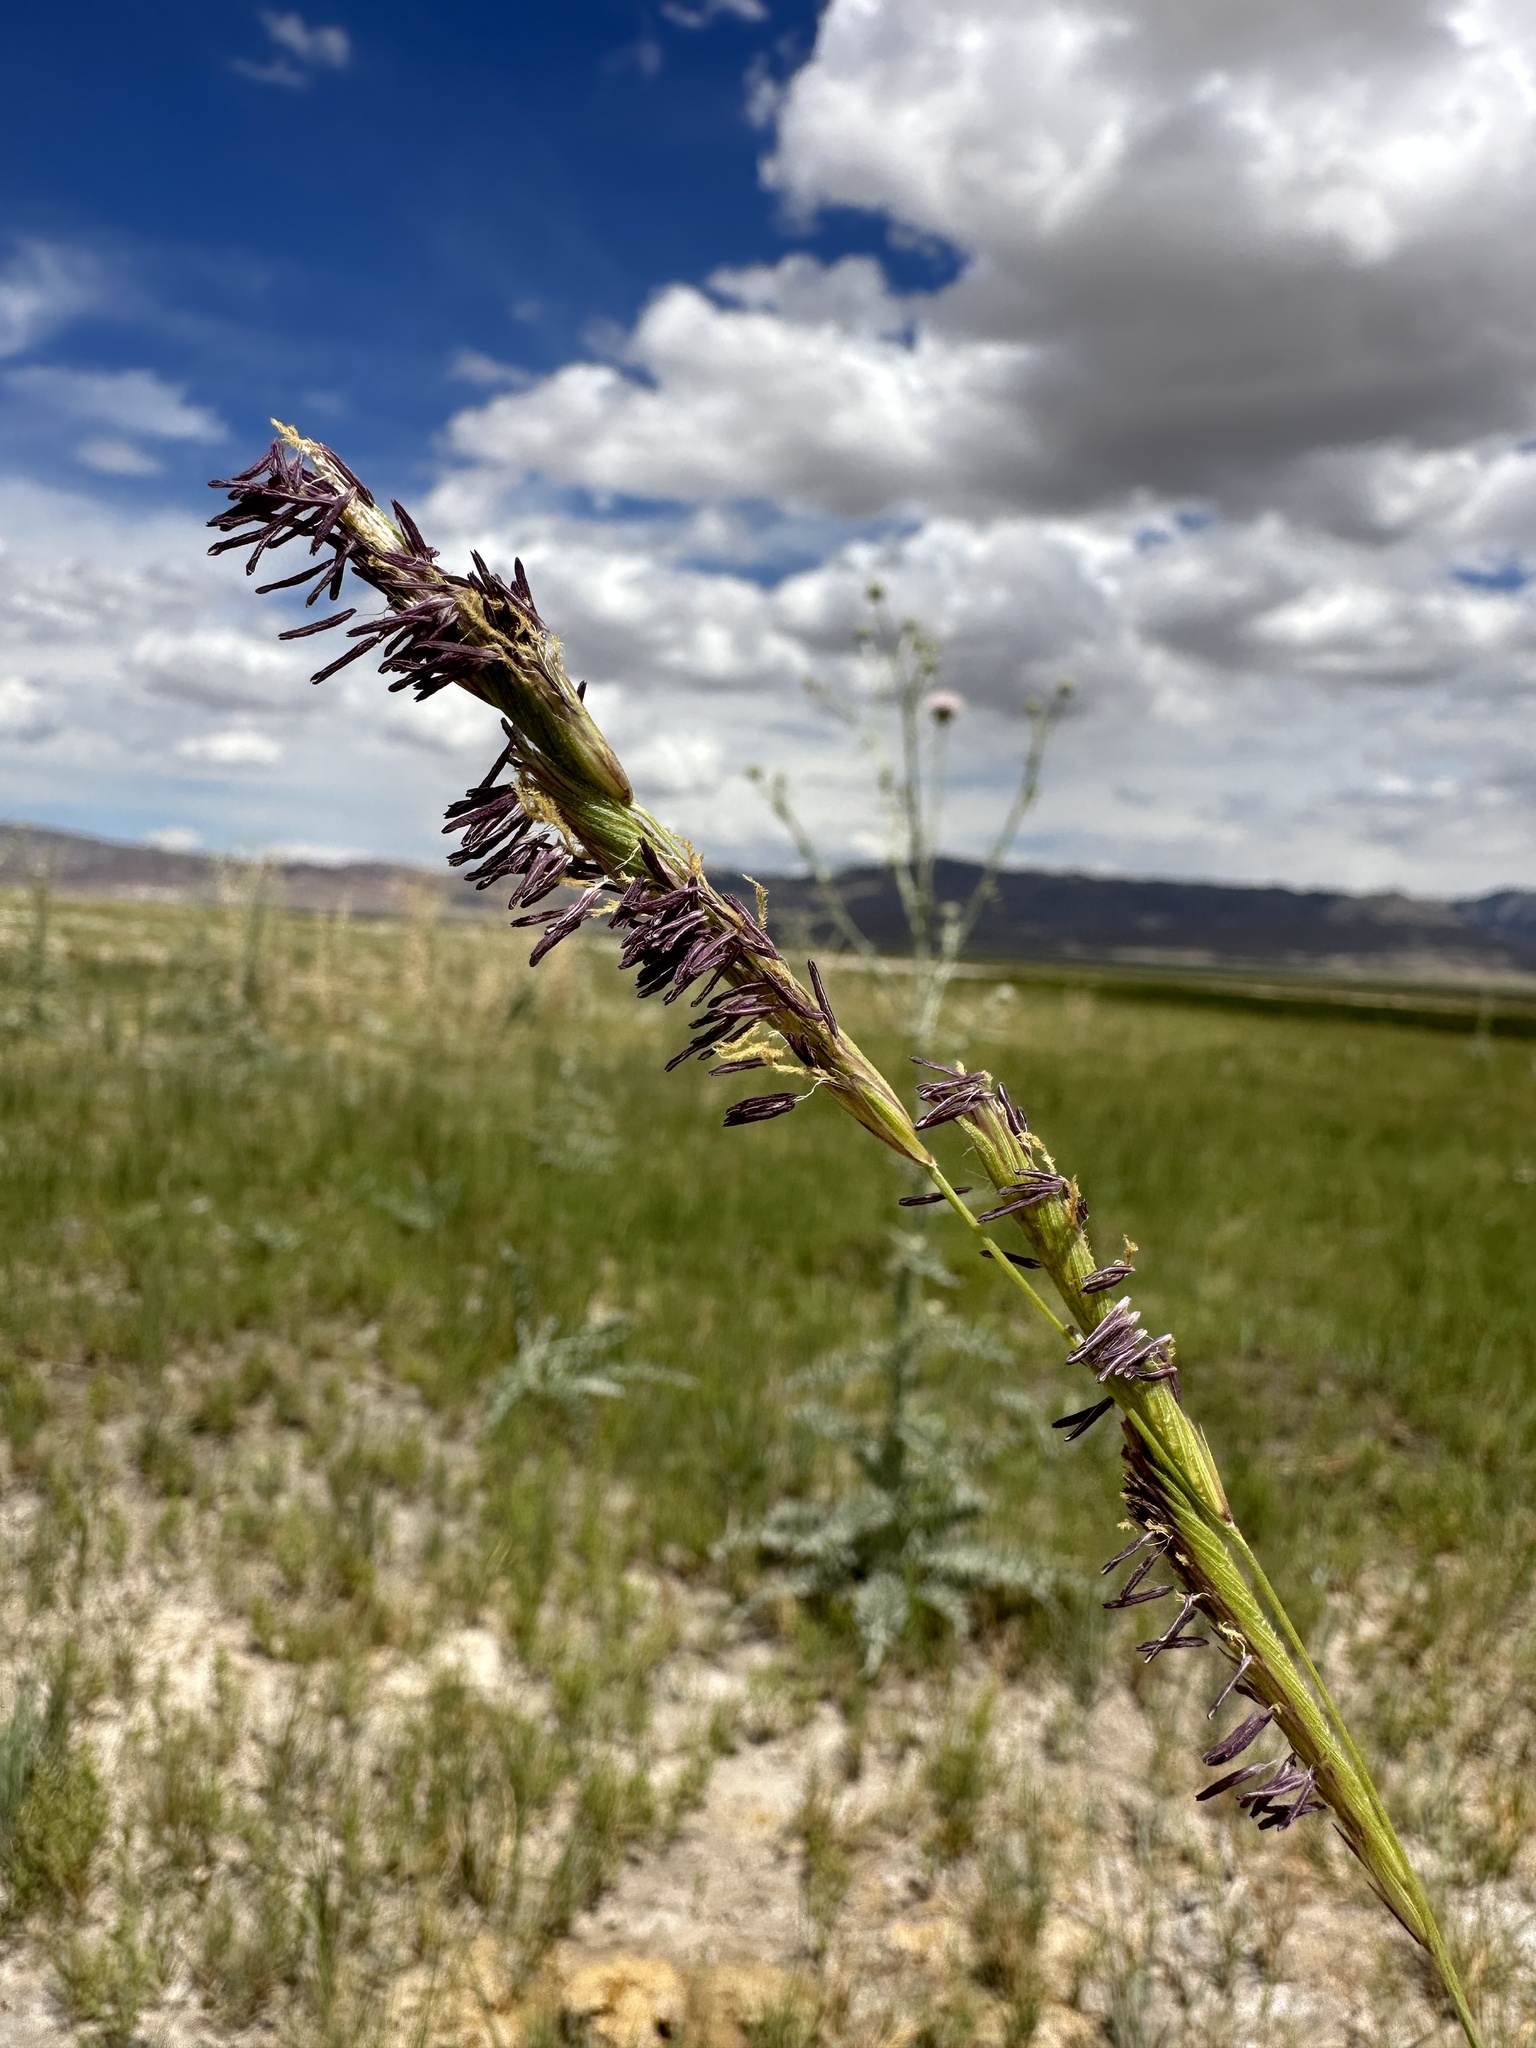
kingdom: Plantae
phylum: Tracheophyta
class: Liliopsida
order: Poales
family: Poaceae
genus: Sporobolus
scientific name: Sporobolus hookerianus
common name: Alkali cordgrass
